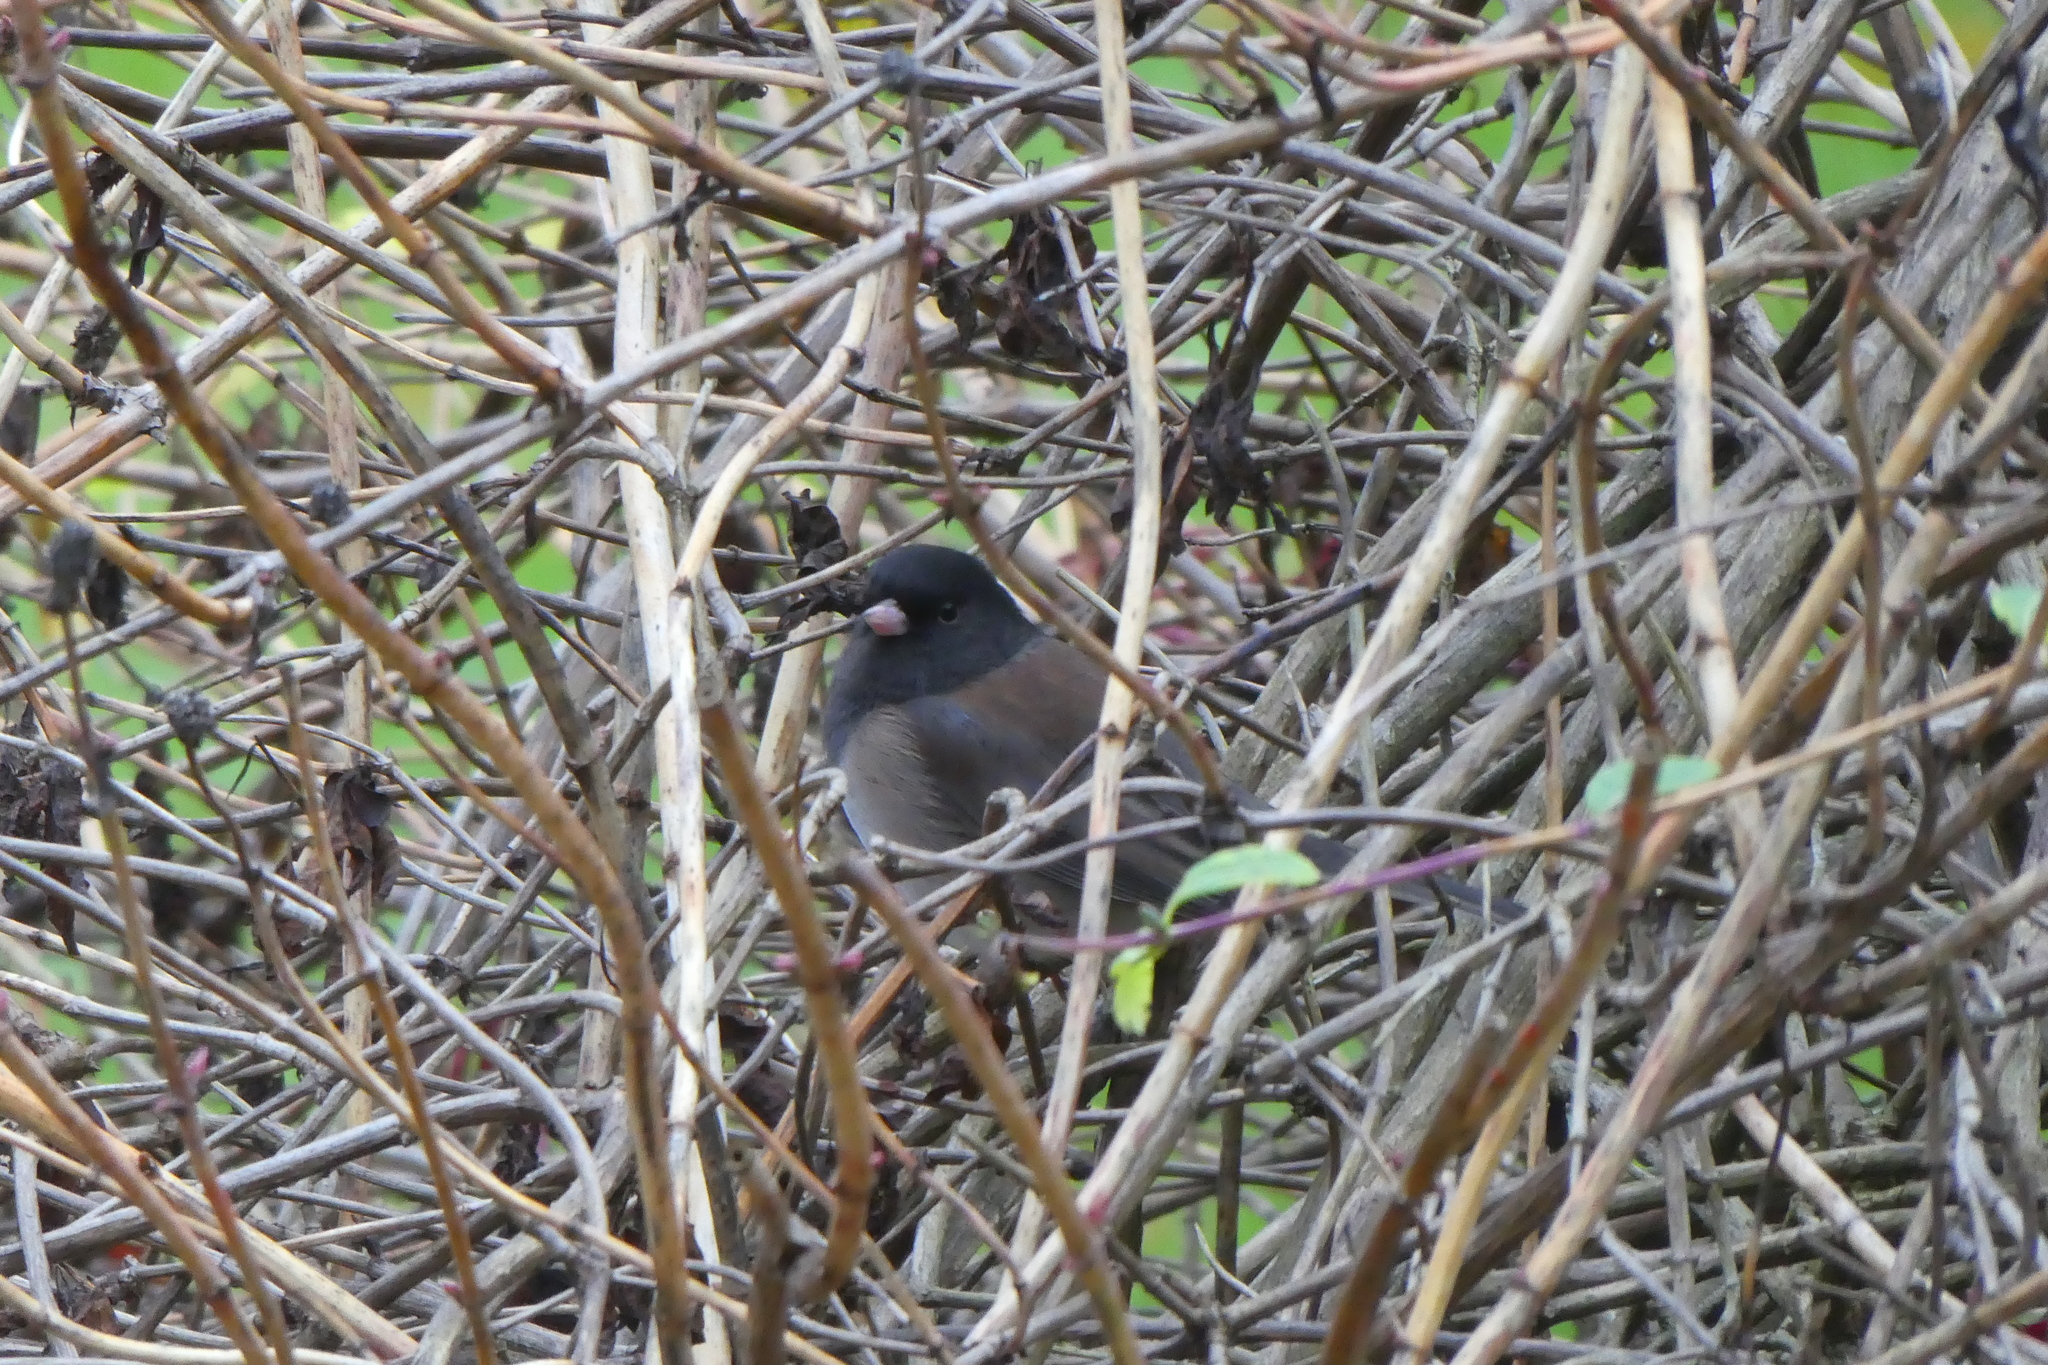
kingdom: Animalia
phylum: Chordata
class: Aves
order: Passeriformes
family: Passerellidae
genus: Junco
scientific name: Junco hyemalis
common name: Dark-eyed junco
